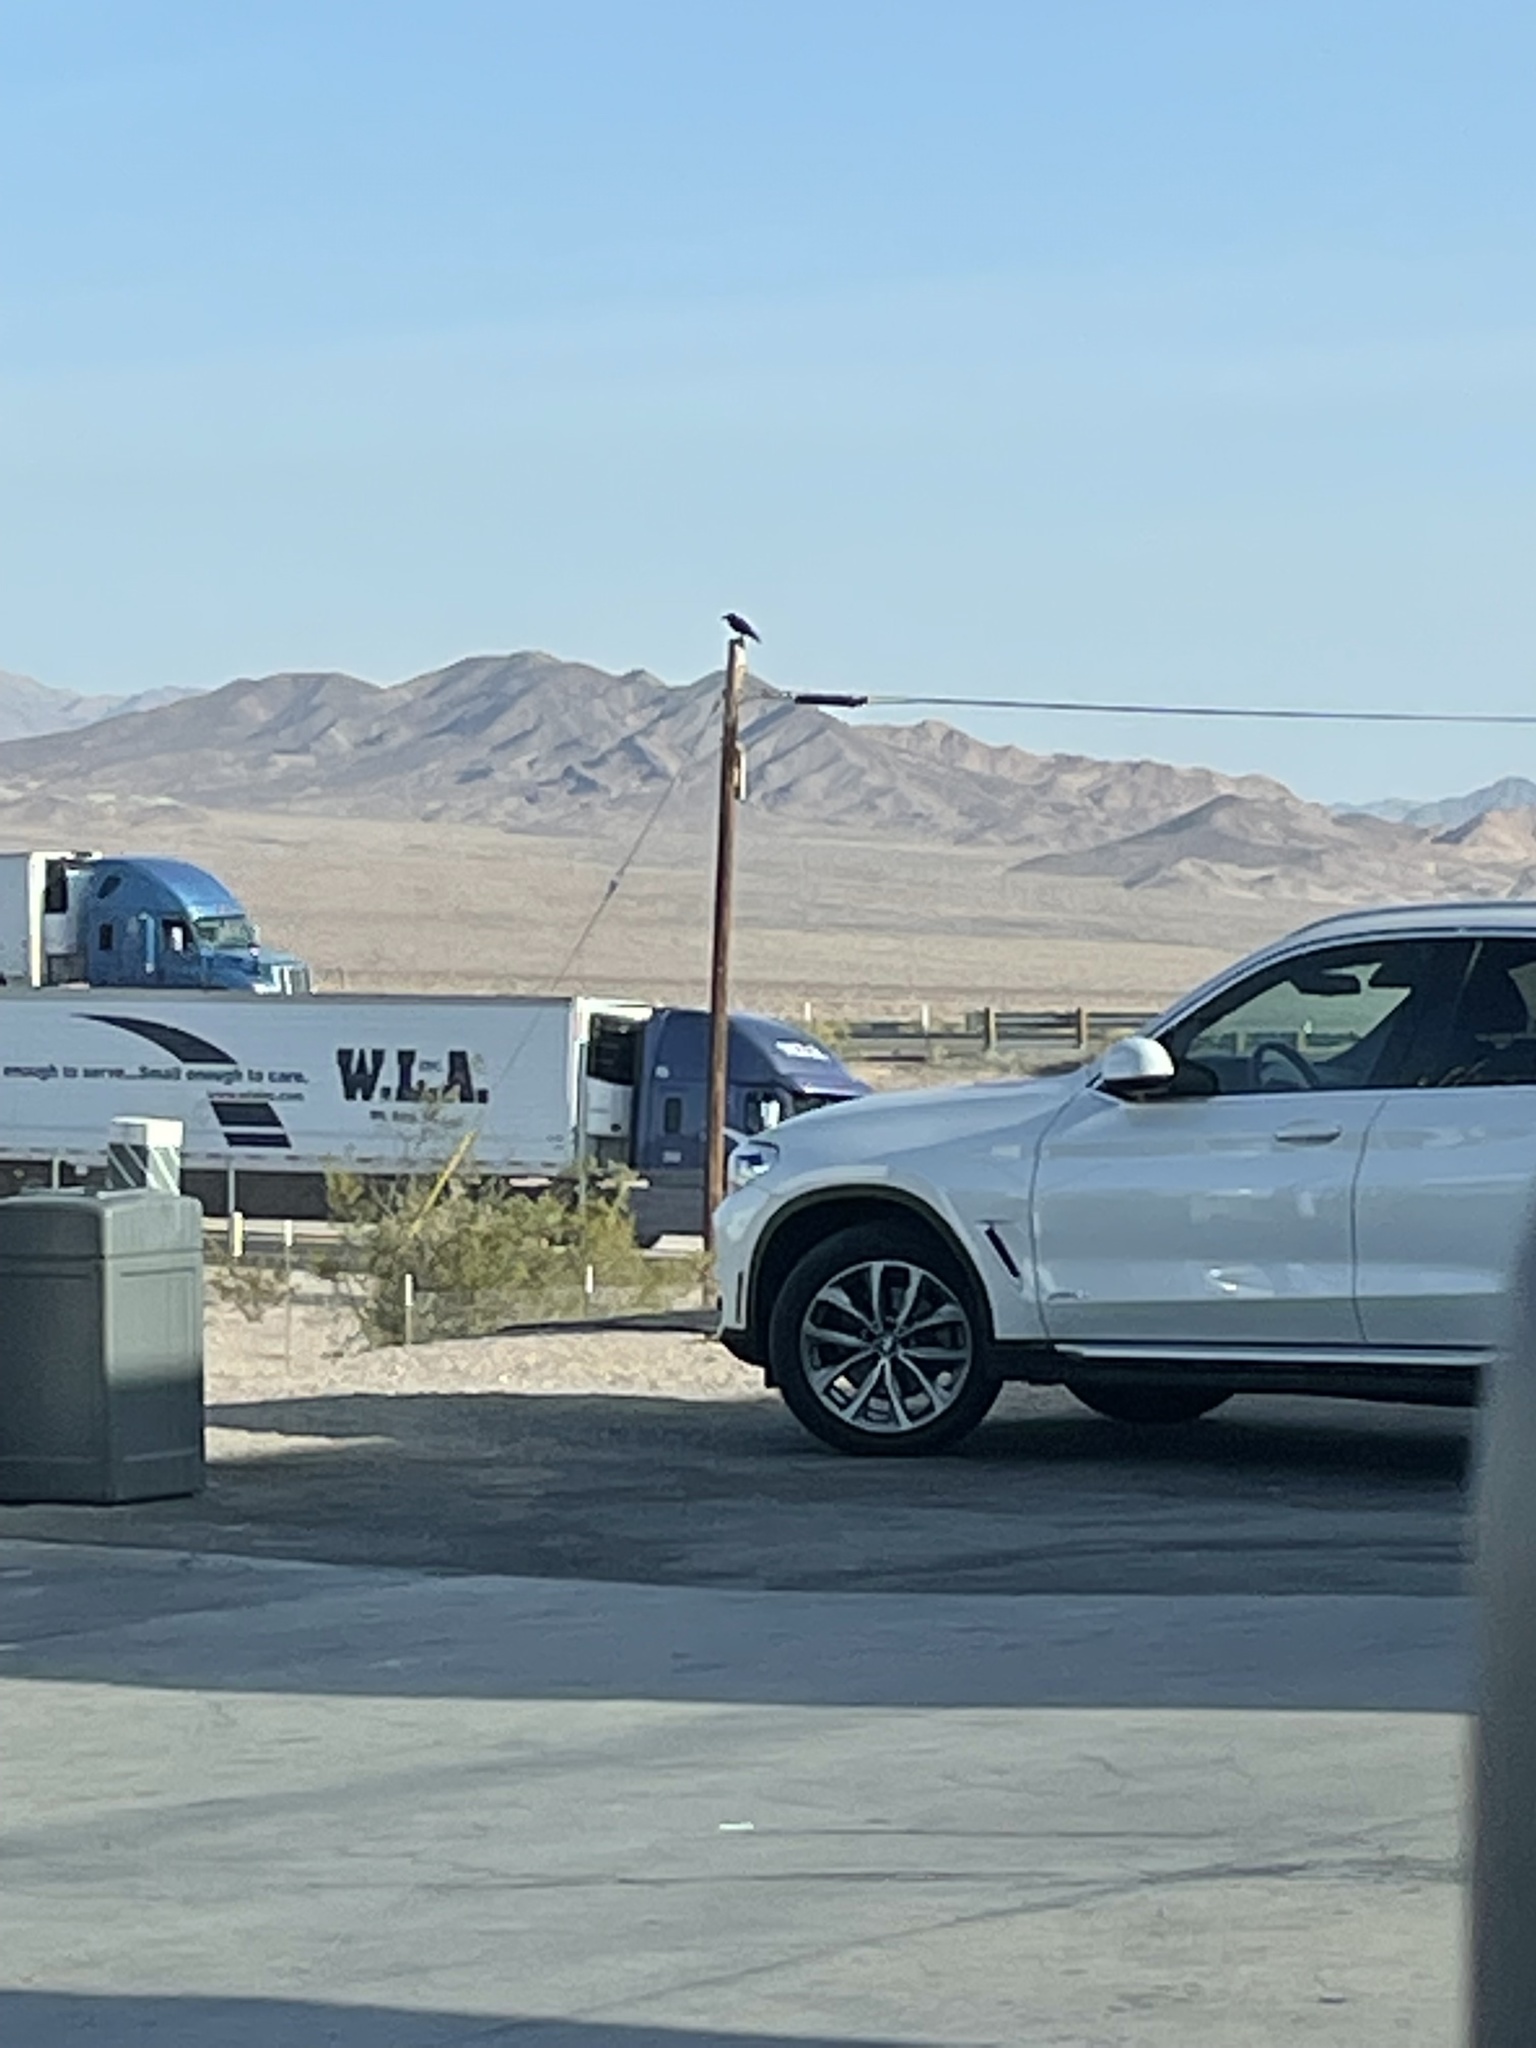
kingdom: Animalia
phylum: Chordata
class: Aves
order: Passeriformes
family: Corvidae
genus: Corvus
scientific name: Corvus corax
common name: Common raven
